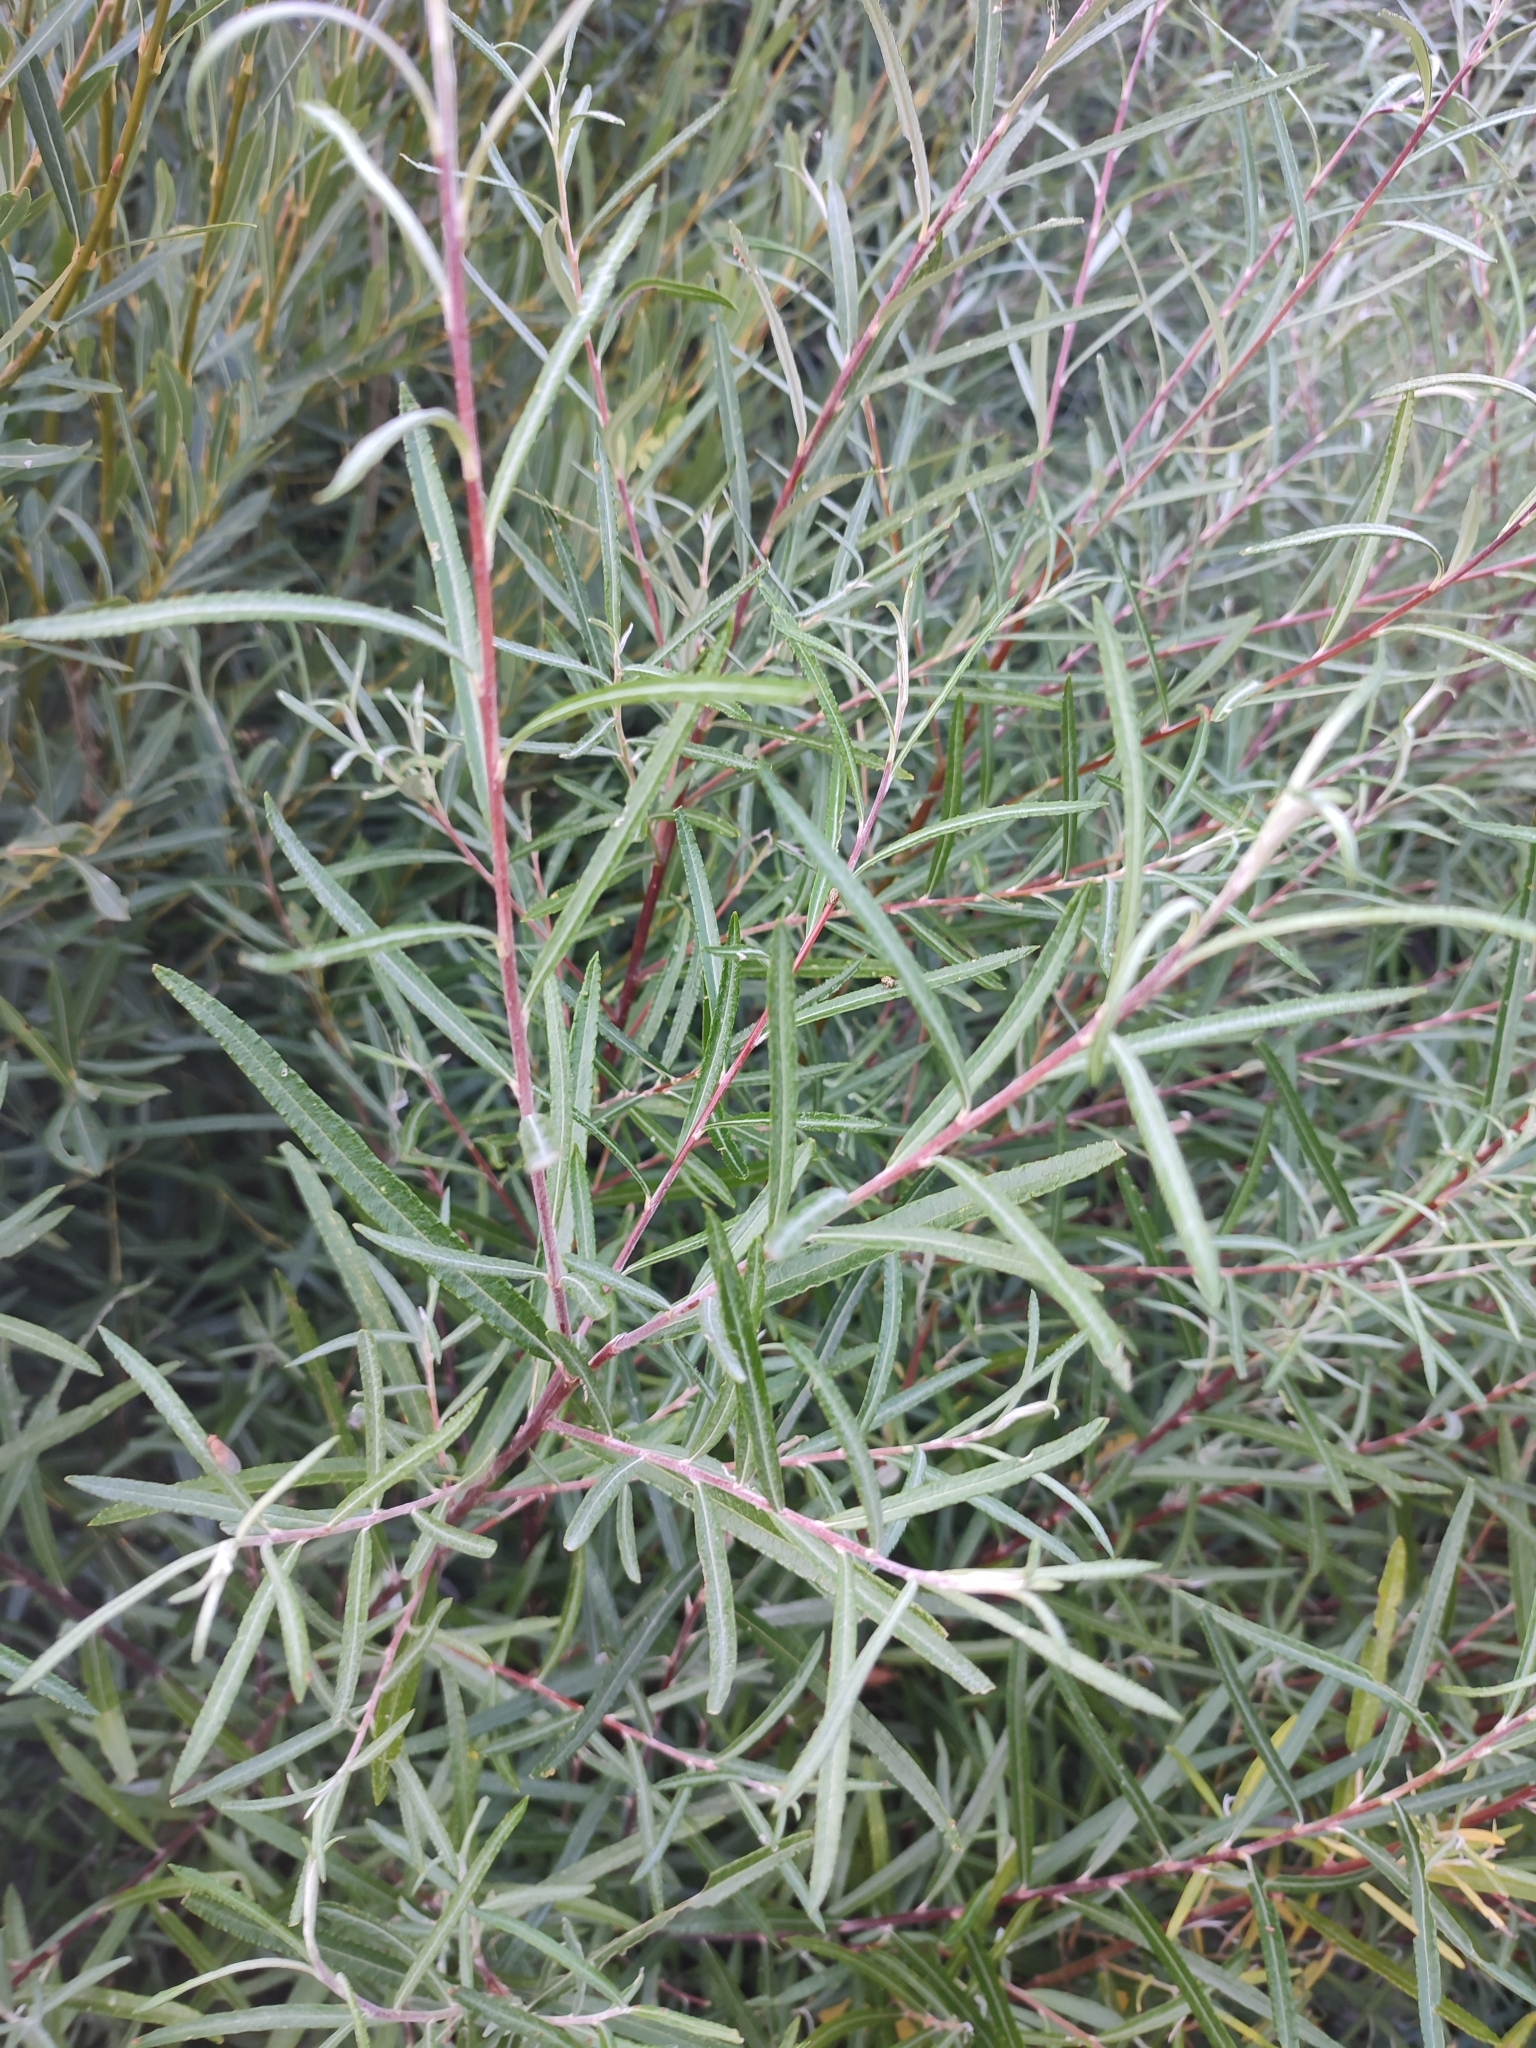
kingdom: Plantae
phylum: Tracheophyta
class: Magnoliopsida
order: Malpighiales
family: Salicaceae
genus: Salix
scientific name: Salix eleagnos
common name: Elaeagnus willow
